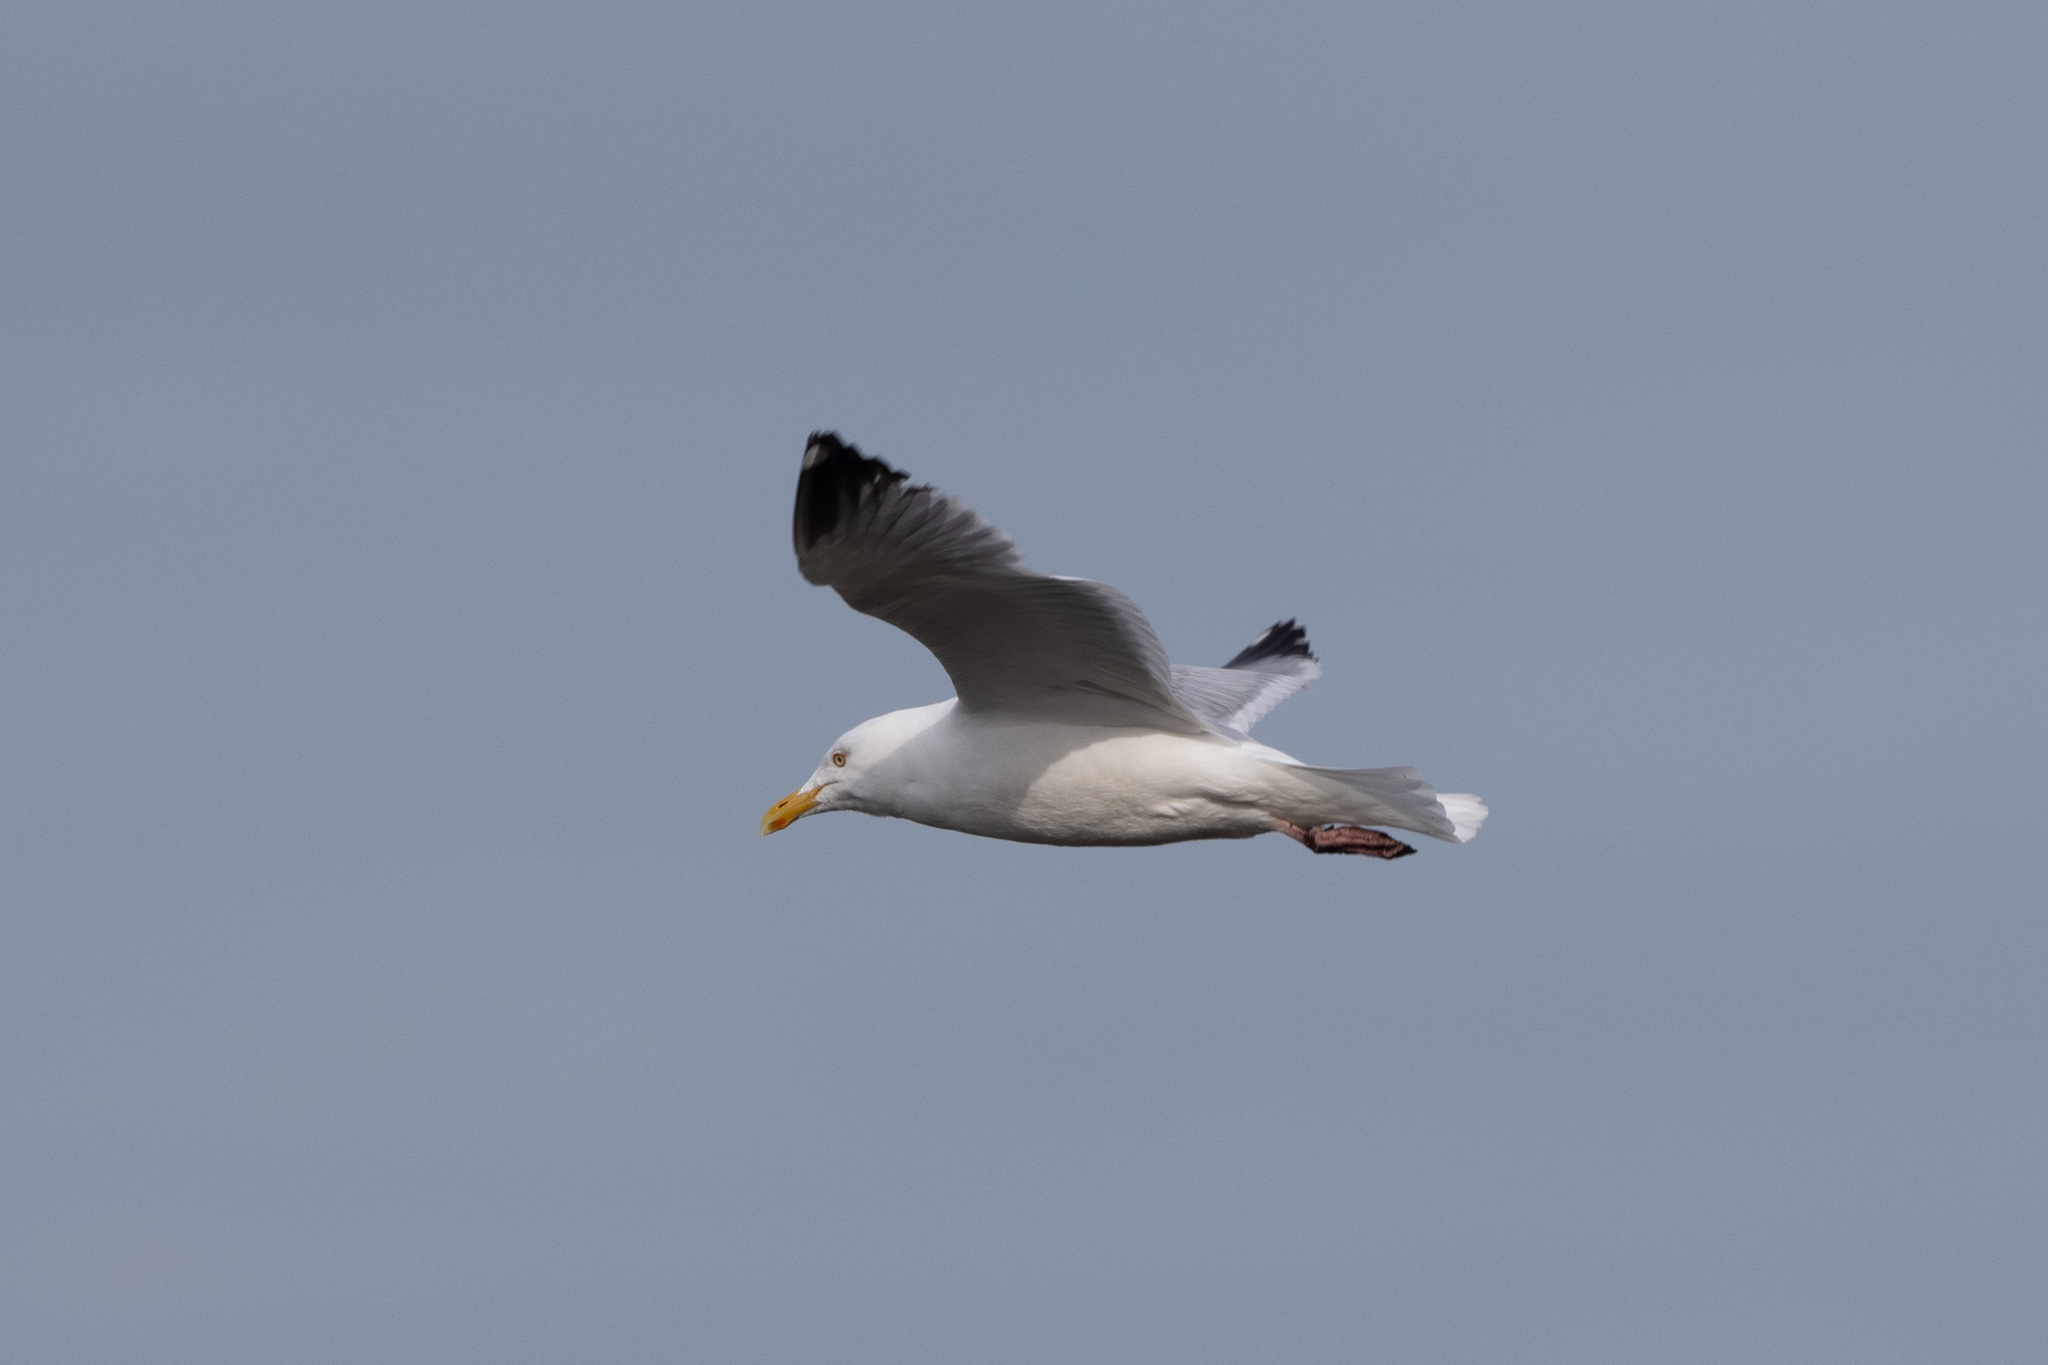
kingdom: Animalia
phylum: Chordata
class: Aves
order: Charadriiformes
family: Laridae
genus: Larus
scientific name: Larus argentatus
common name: Herring gull
